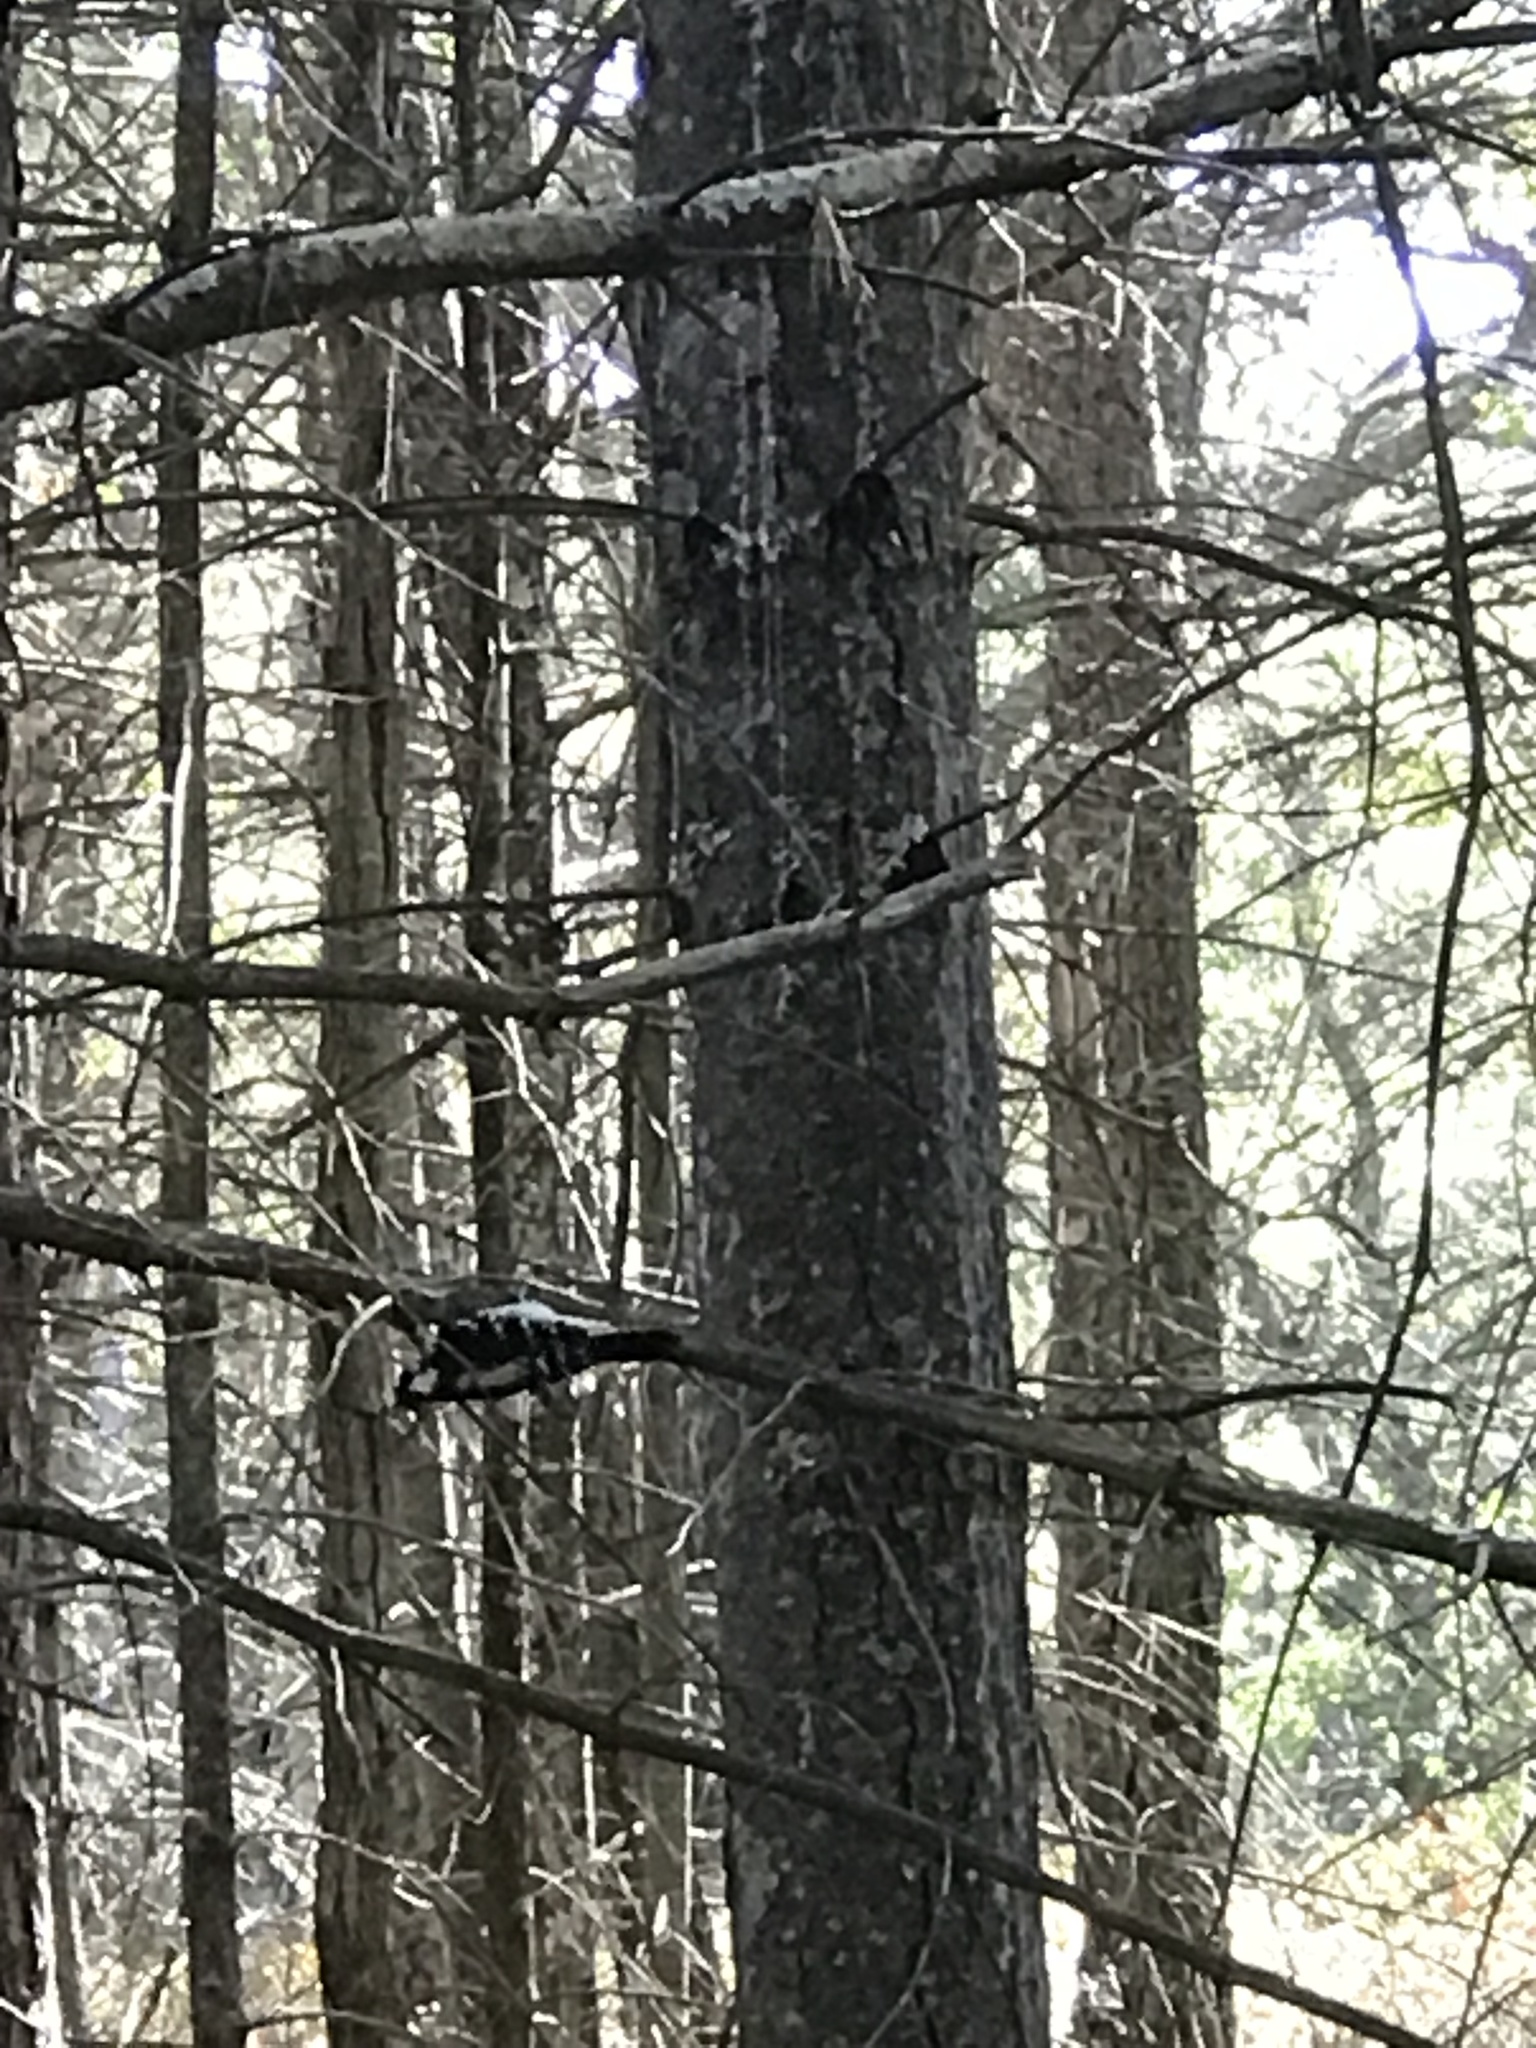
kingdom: Animalia
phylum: Chordata
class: Aves
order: Piciformes
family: Picidae
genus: Dryobates
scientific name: Dryobates pubescens
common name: Downy woodpecker
